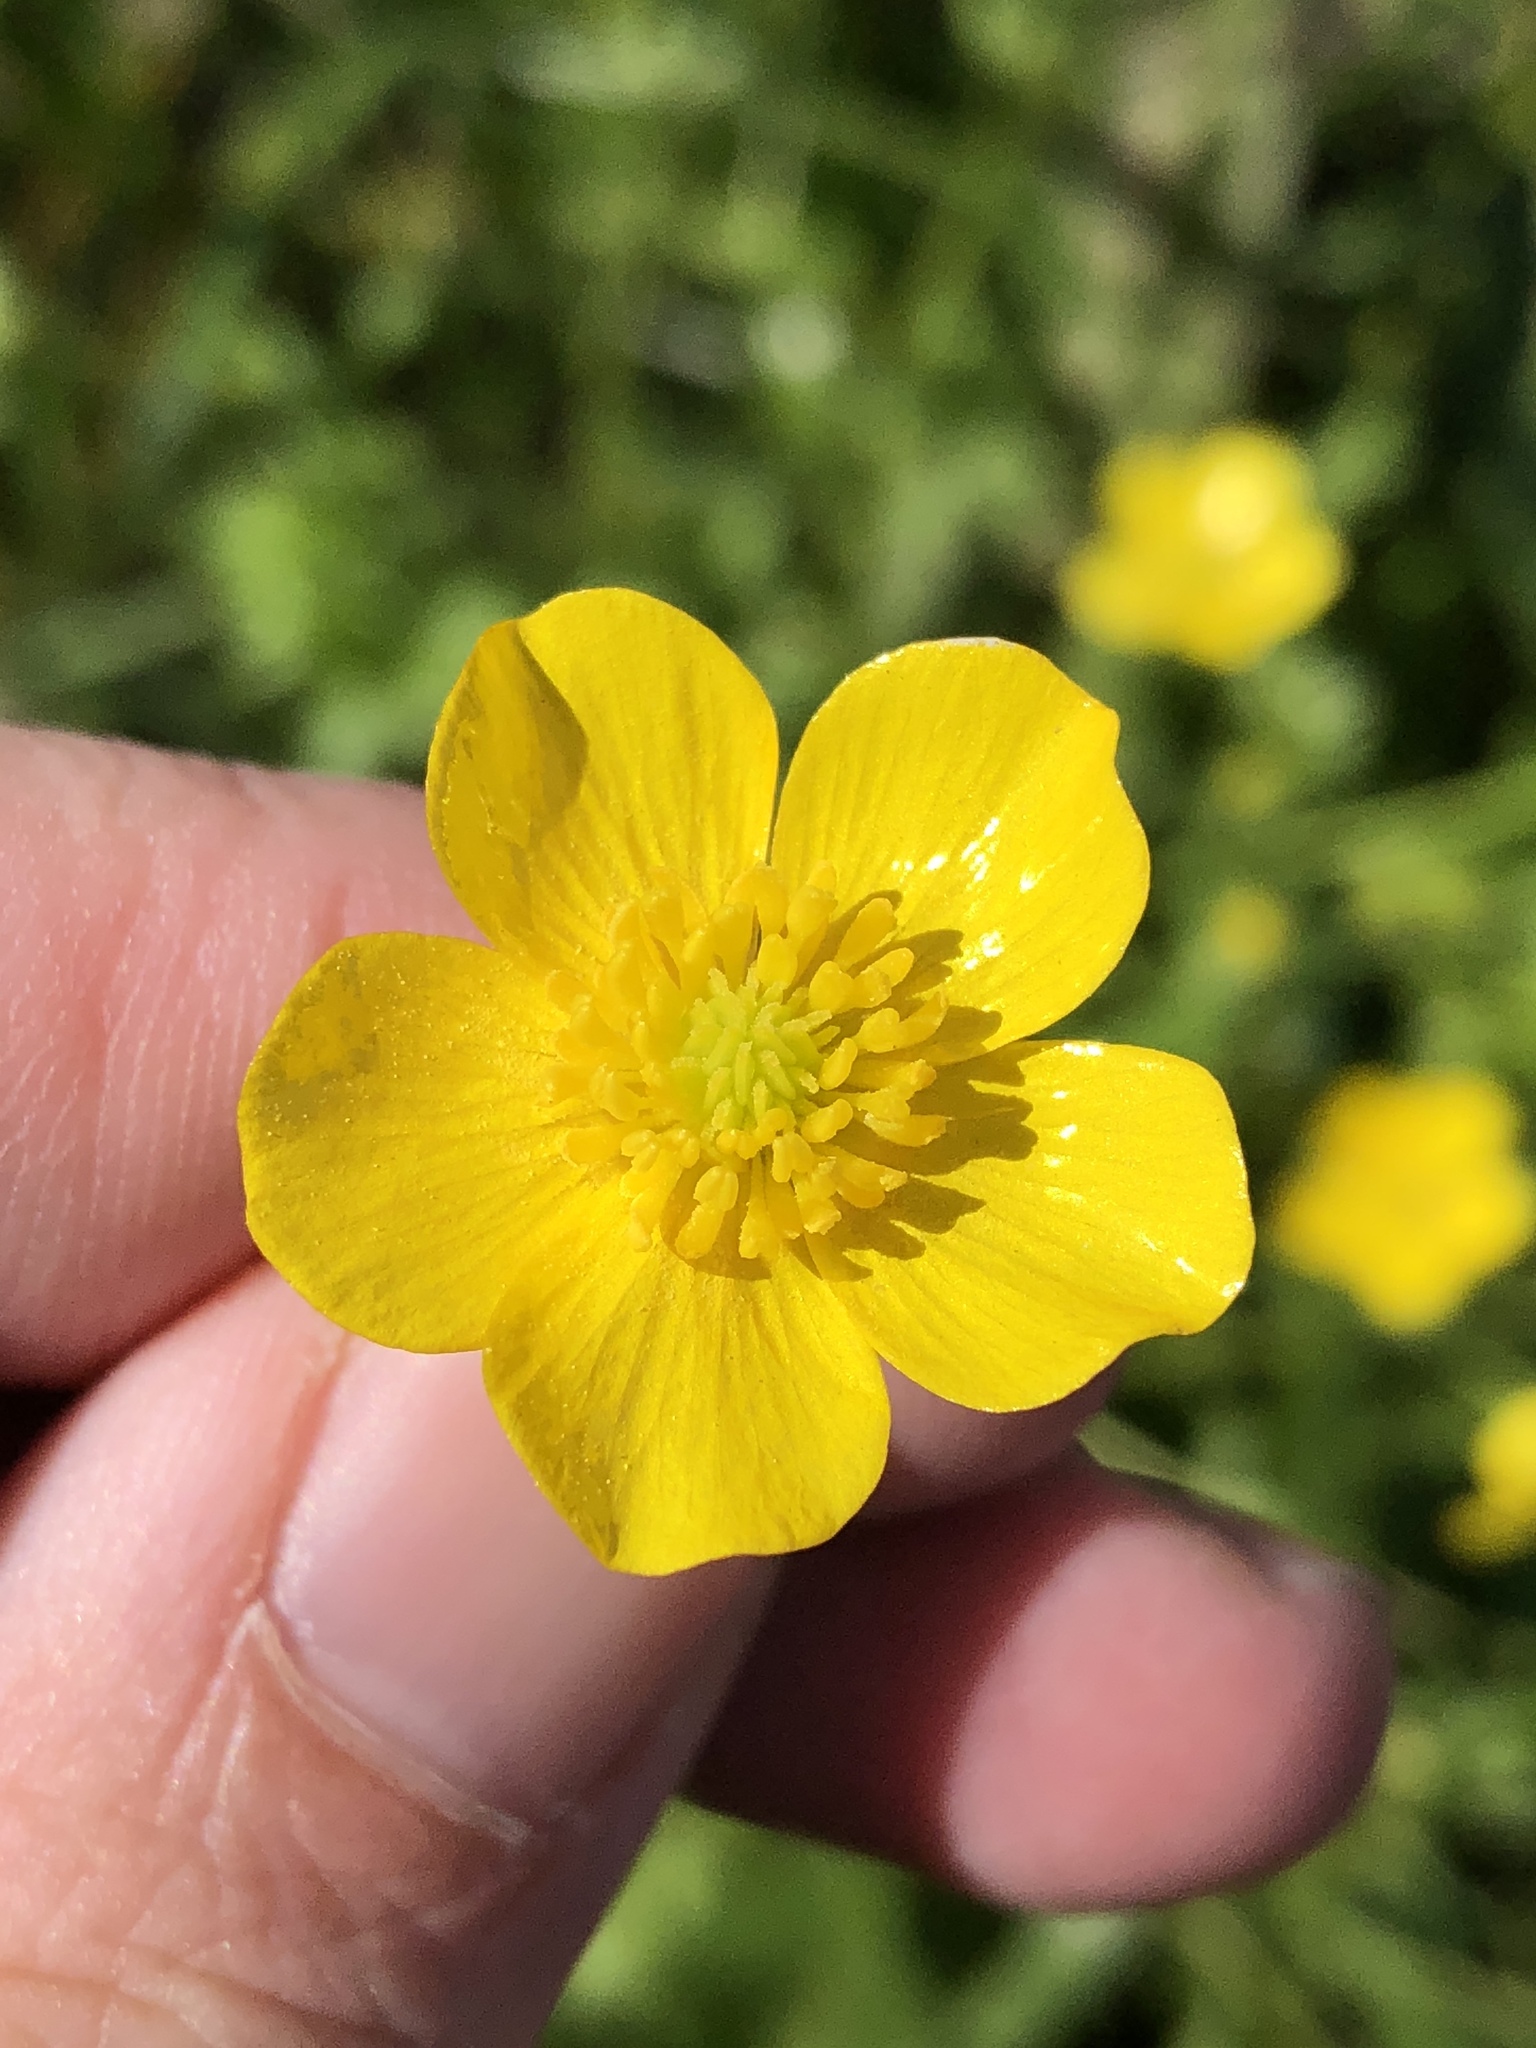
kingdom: Plantae
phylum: Tracheophyta
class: Magnoliopsida
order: Ranunculales
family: Ranunculaceae
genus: Ranunculus
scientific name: Ranunculus repens
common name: Creeping buttercup
